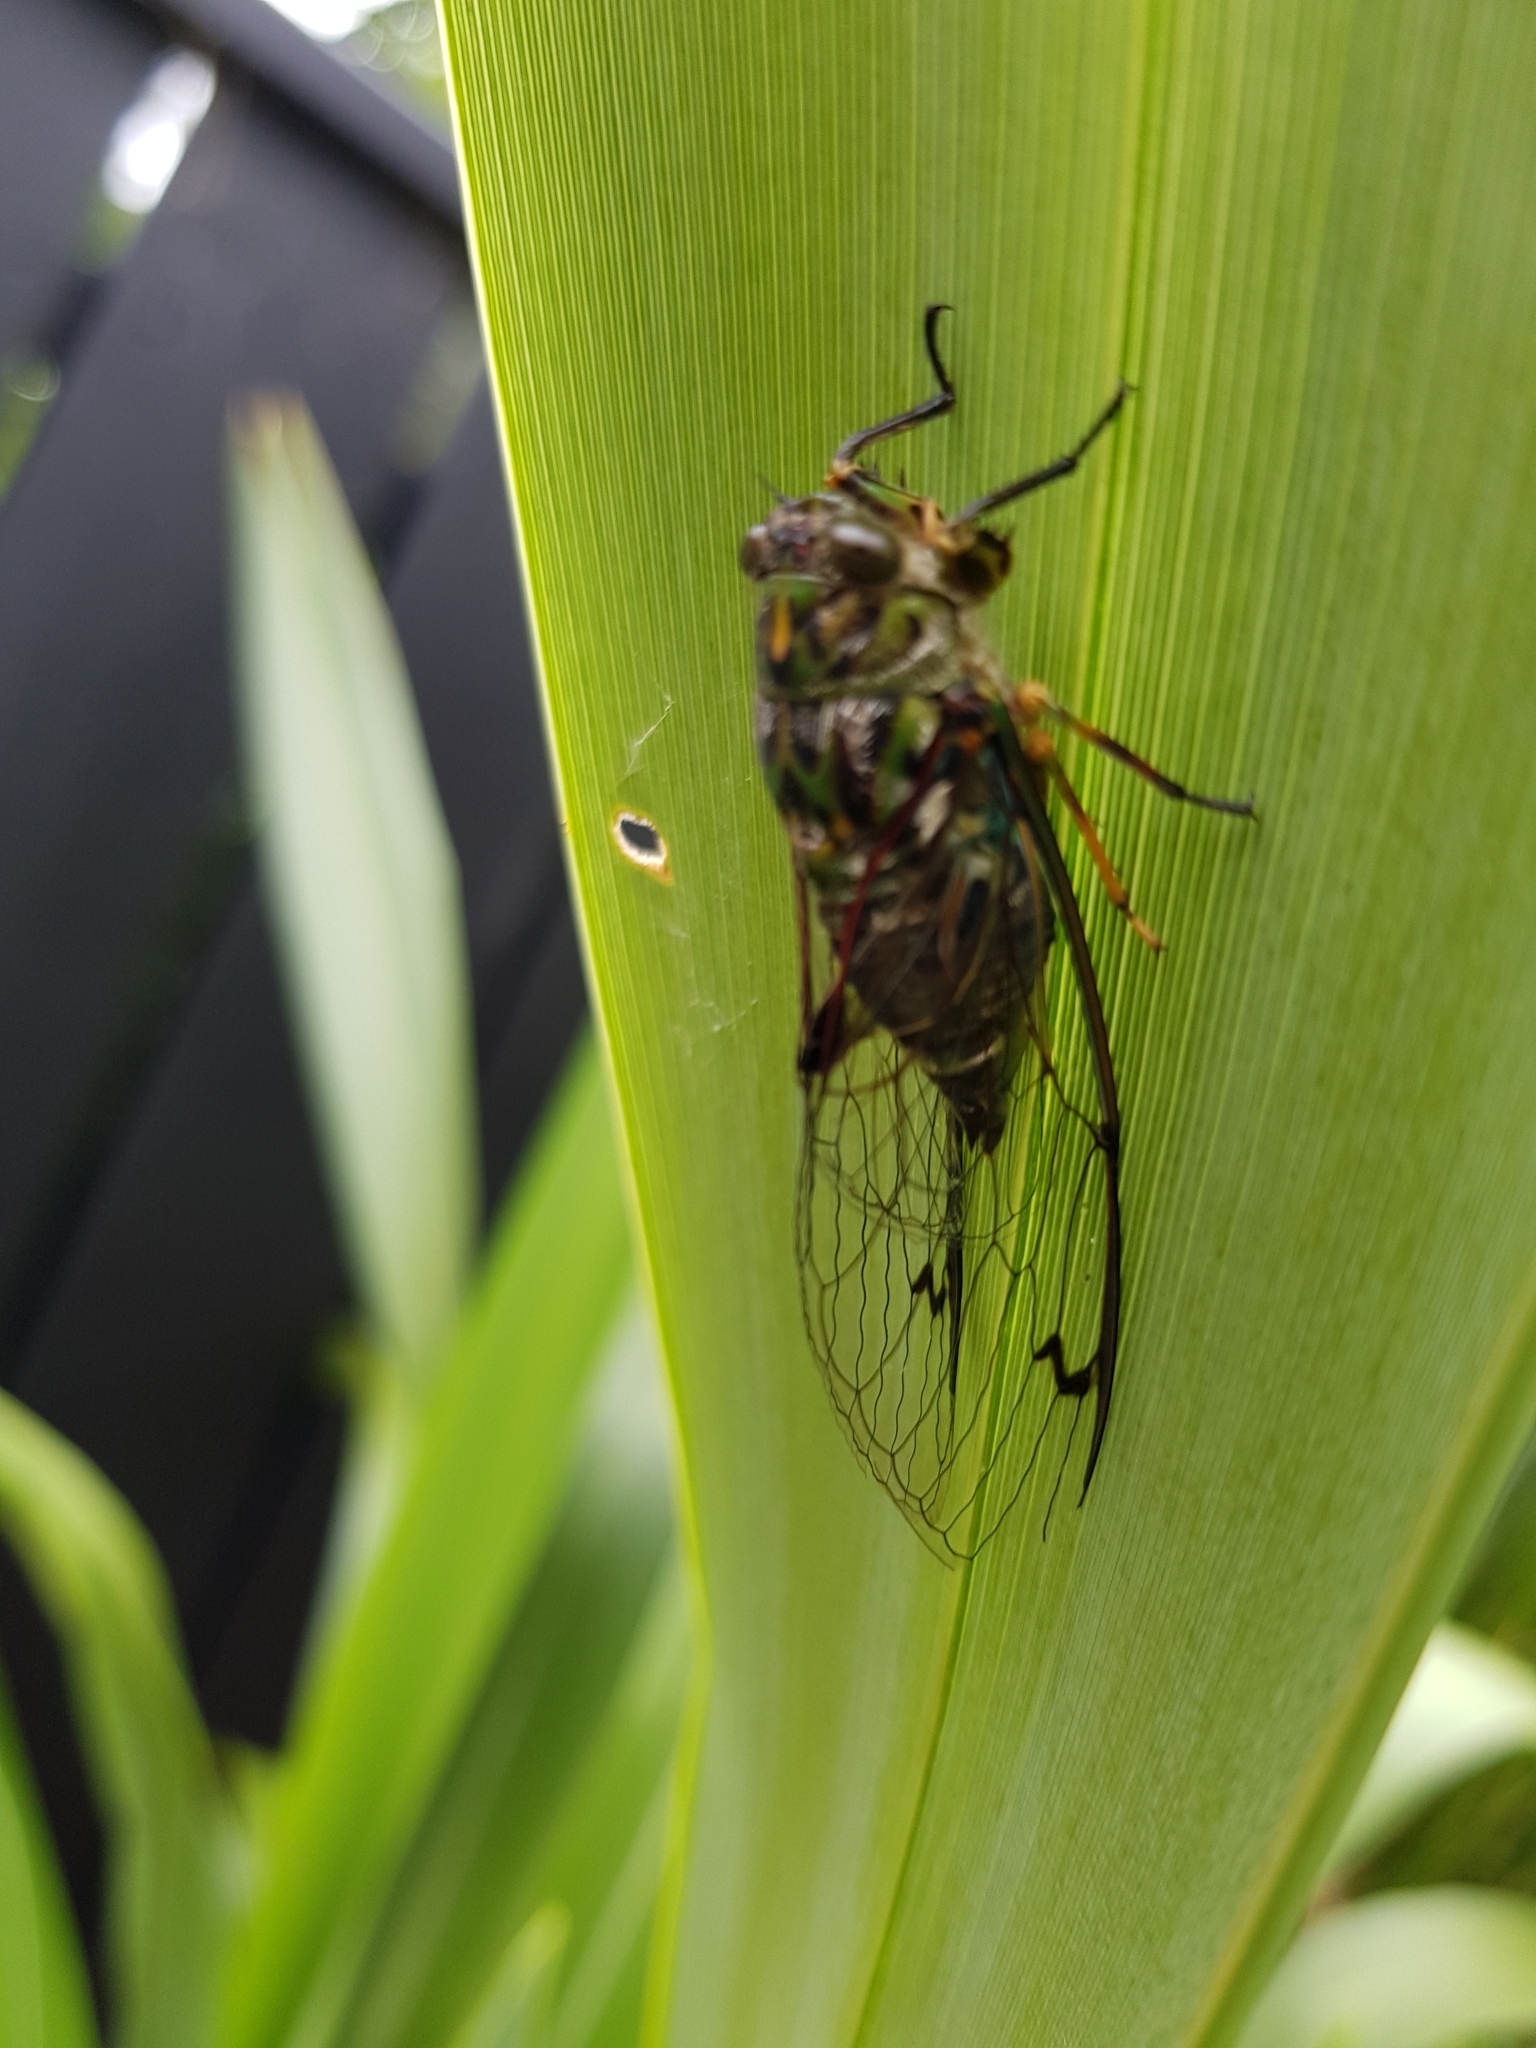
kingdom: Animalia
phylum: Arthropoda
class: Insecta
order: Hemiptera
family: Cicadidae
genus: Amphipsalta
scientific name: Amphipsalta zelandica
